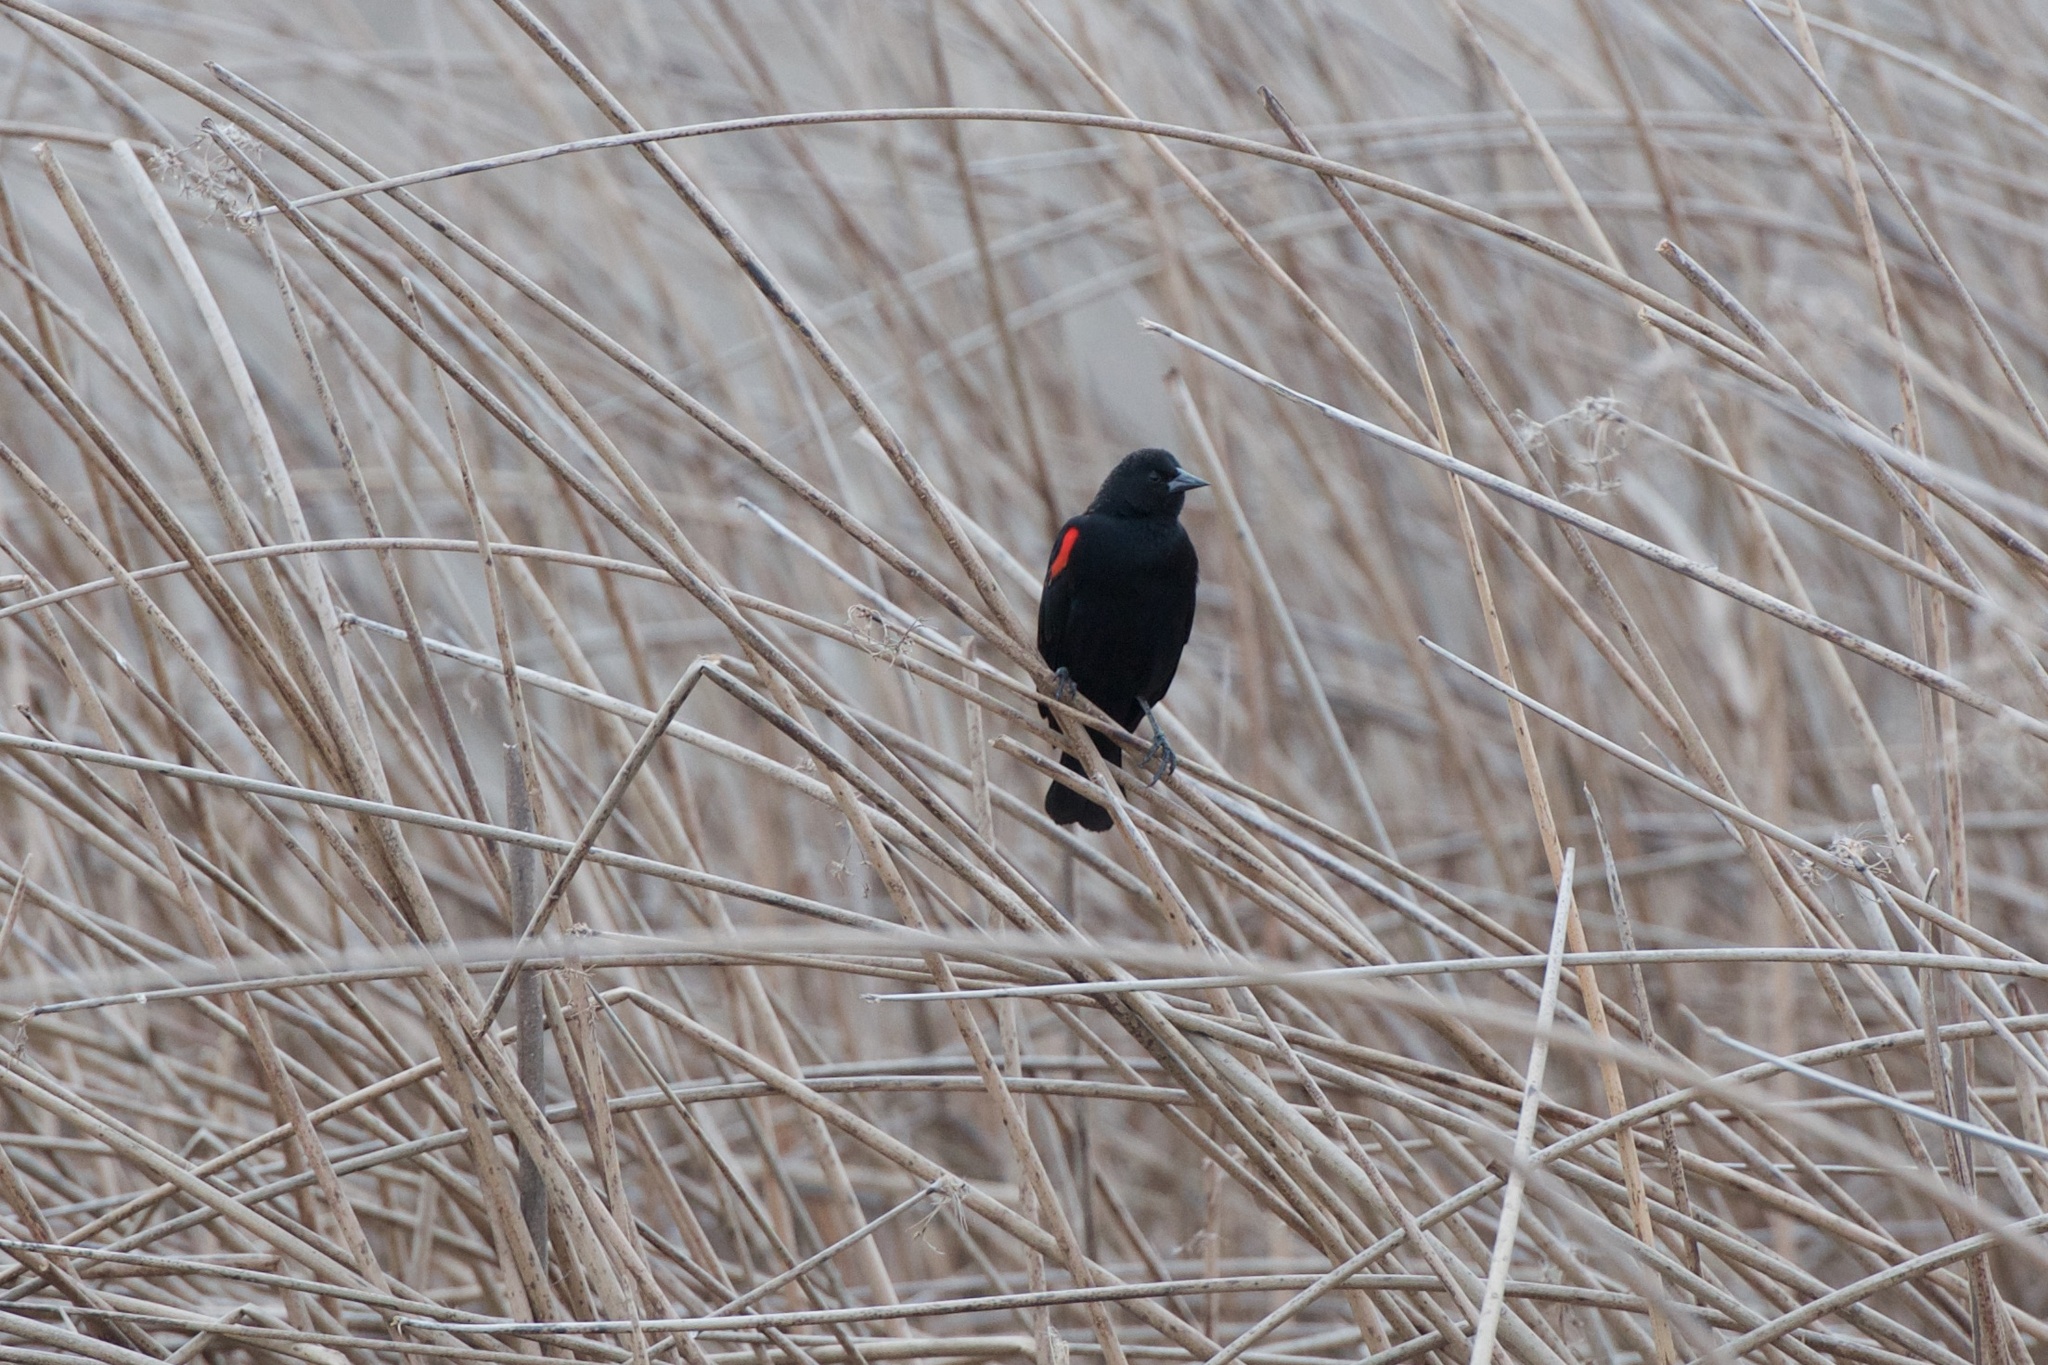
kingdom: Animalia
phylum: Chordata
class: Aves
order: Passeriformes
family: Icteridae
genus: Agelaius
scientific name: Agelaius phoeniceus
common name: Red-winged blackbird
